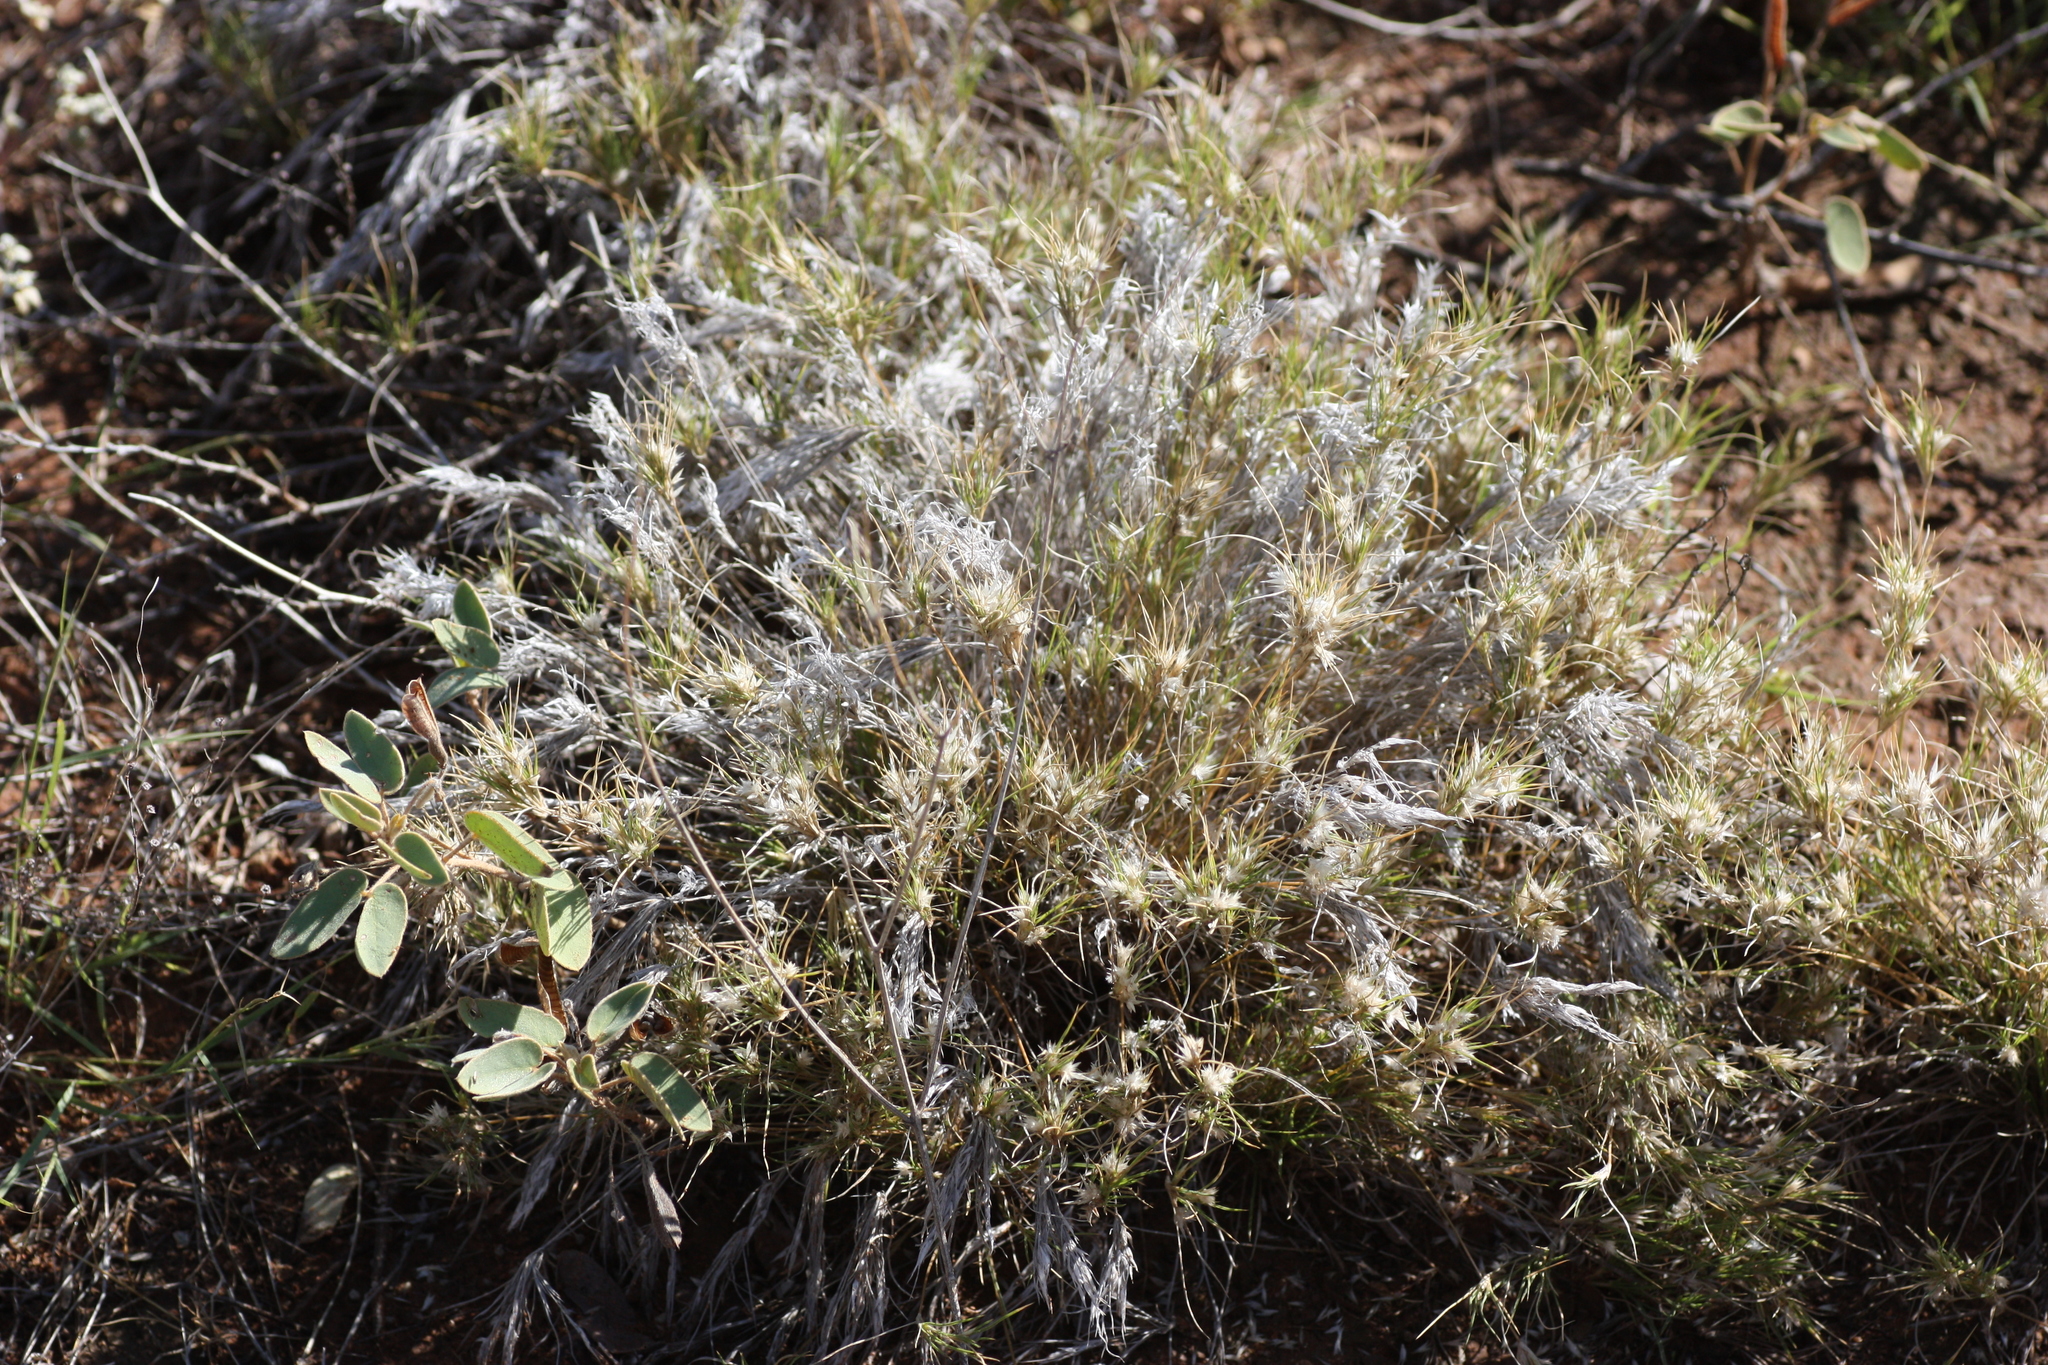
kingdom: Plantae
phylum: Tracheophyta
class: Liliopsida
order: Poales
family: Poaceae
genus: Dasyochloa
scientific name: Dasyochloa pulchella
